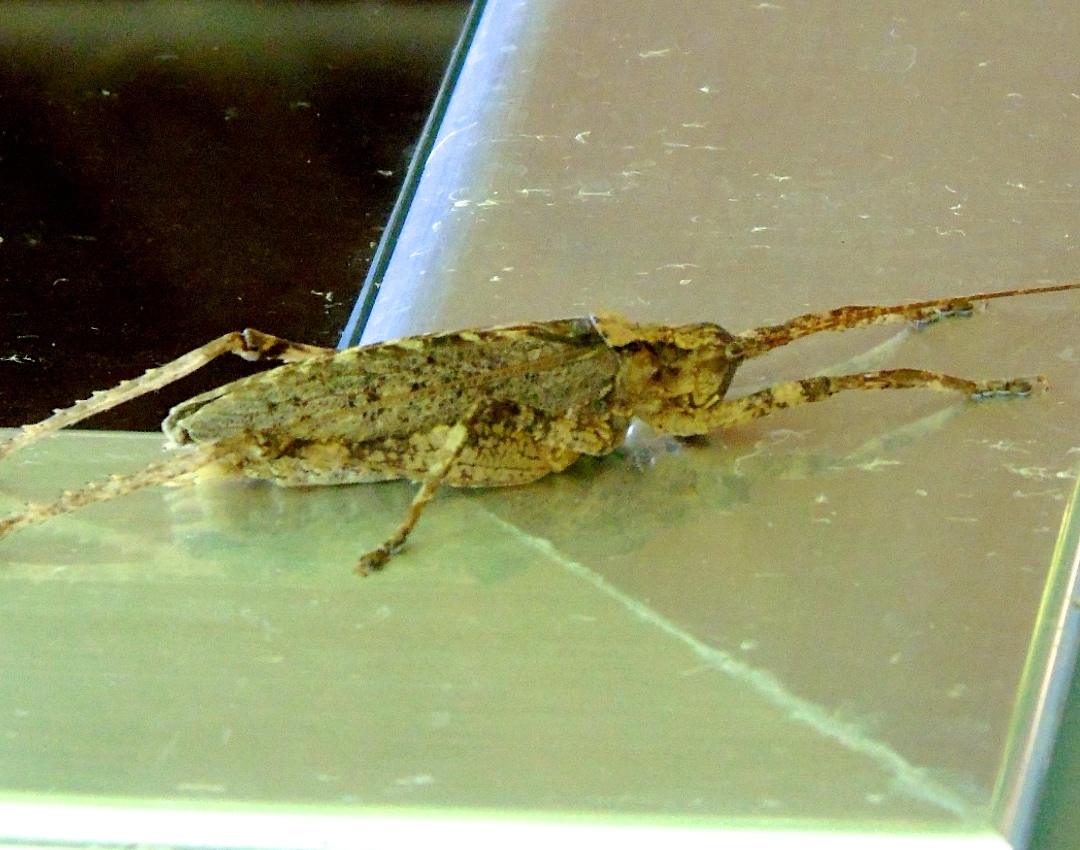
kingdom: Animalia
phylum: Arthropoda
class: Insecta
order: Orthoptera
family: Tettigoniidae
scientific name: Tettigoniidae
